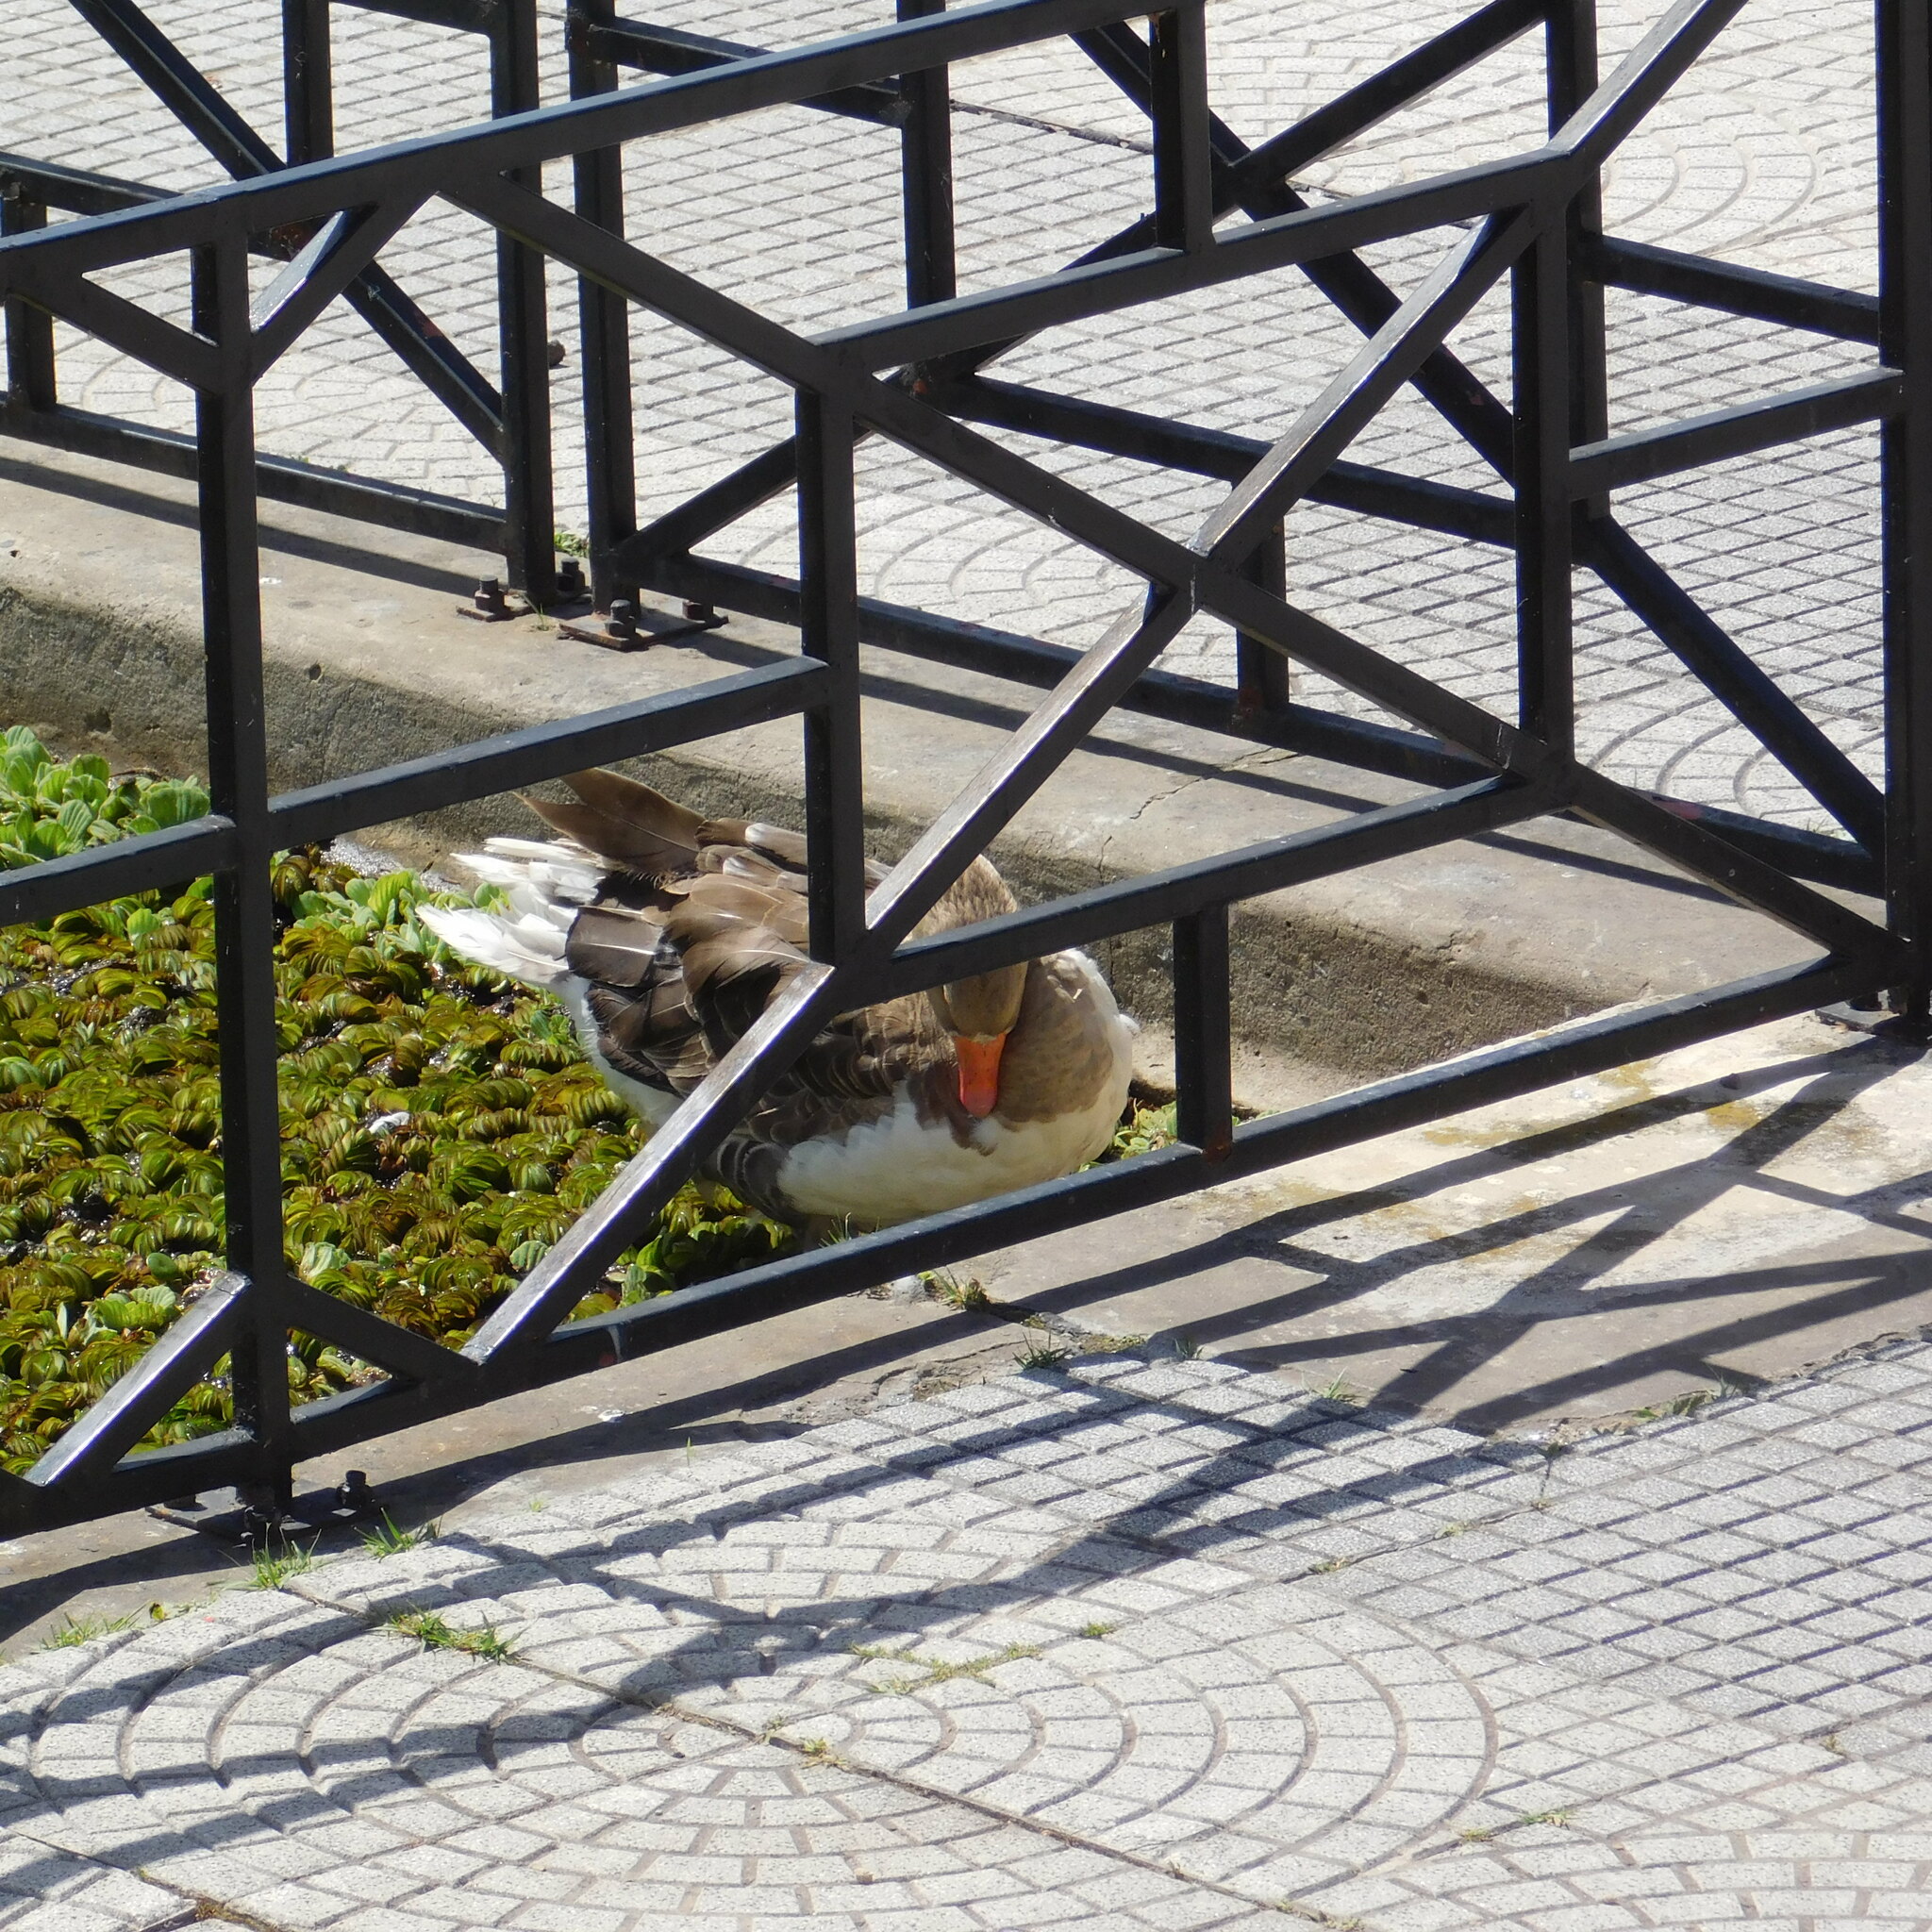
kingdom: Animalia
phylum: Chordata
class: Aves
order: Anseriformes
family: Anatidae
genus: Anser
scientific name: Anser anser
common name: Greylag goose
